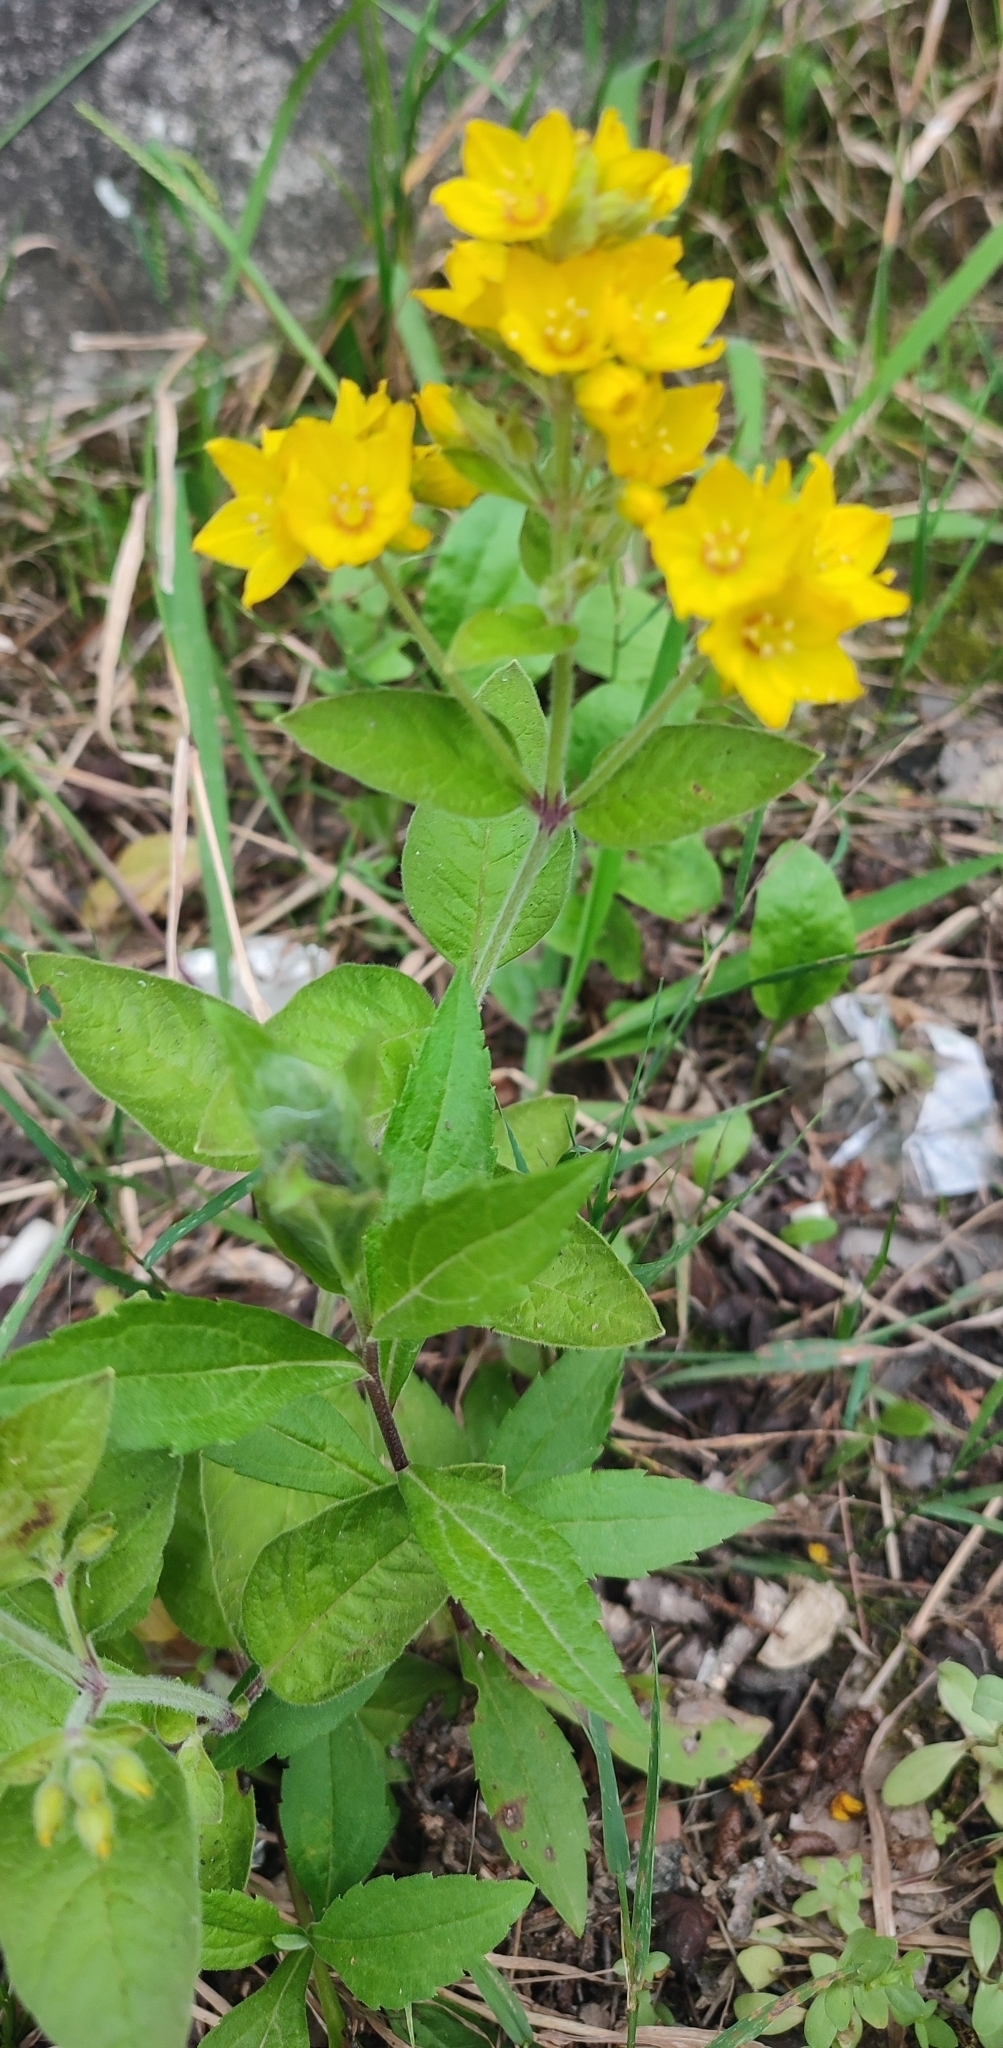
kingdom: Plantae
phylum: Tracheophyta
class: Magnoliopsida
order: Ericales
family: Primulaceae
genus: Lysimachia
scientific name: Lysimachia verticillaris
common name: Yellow loosestrife
